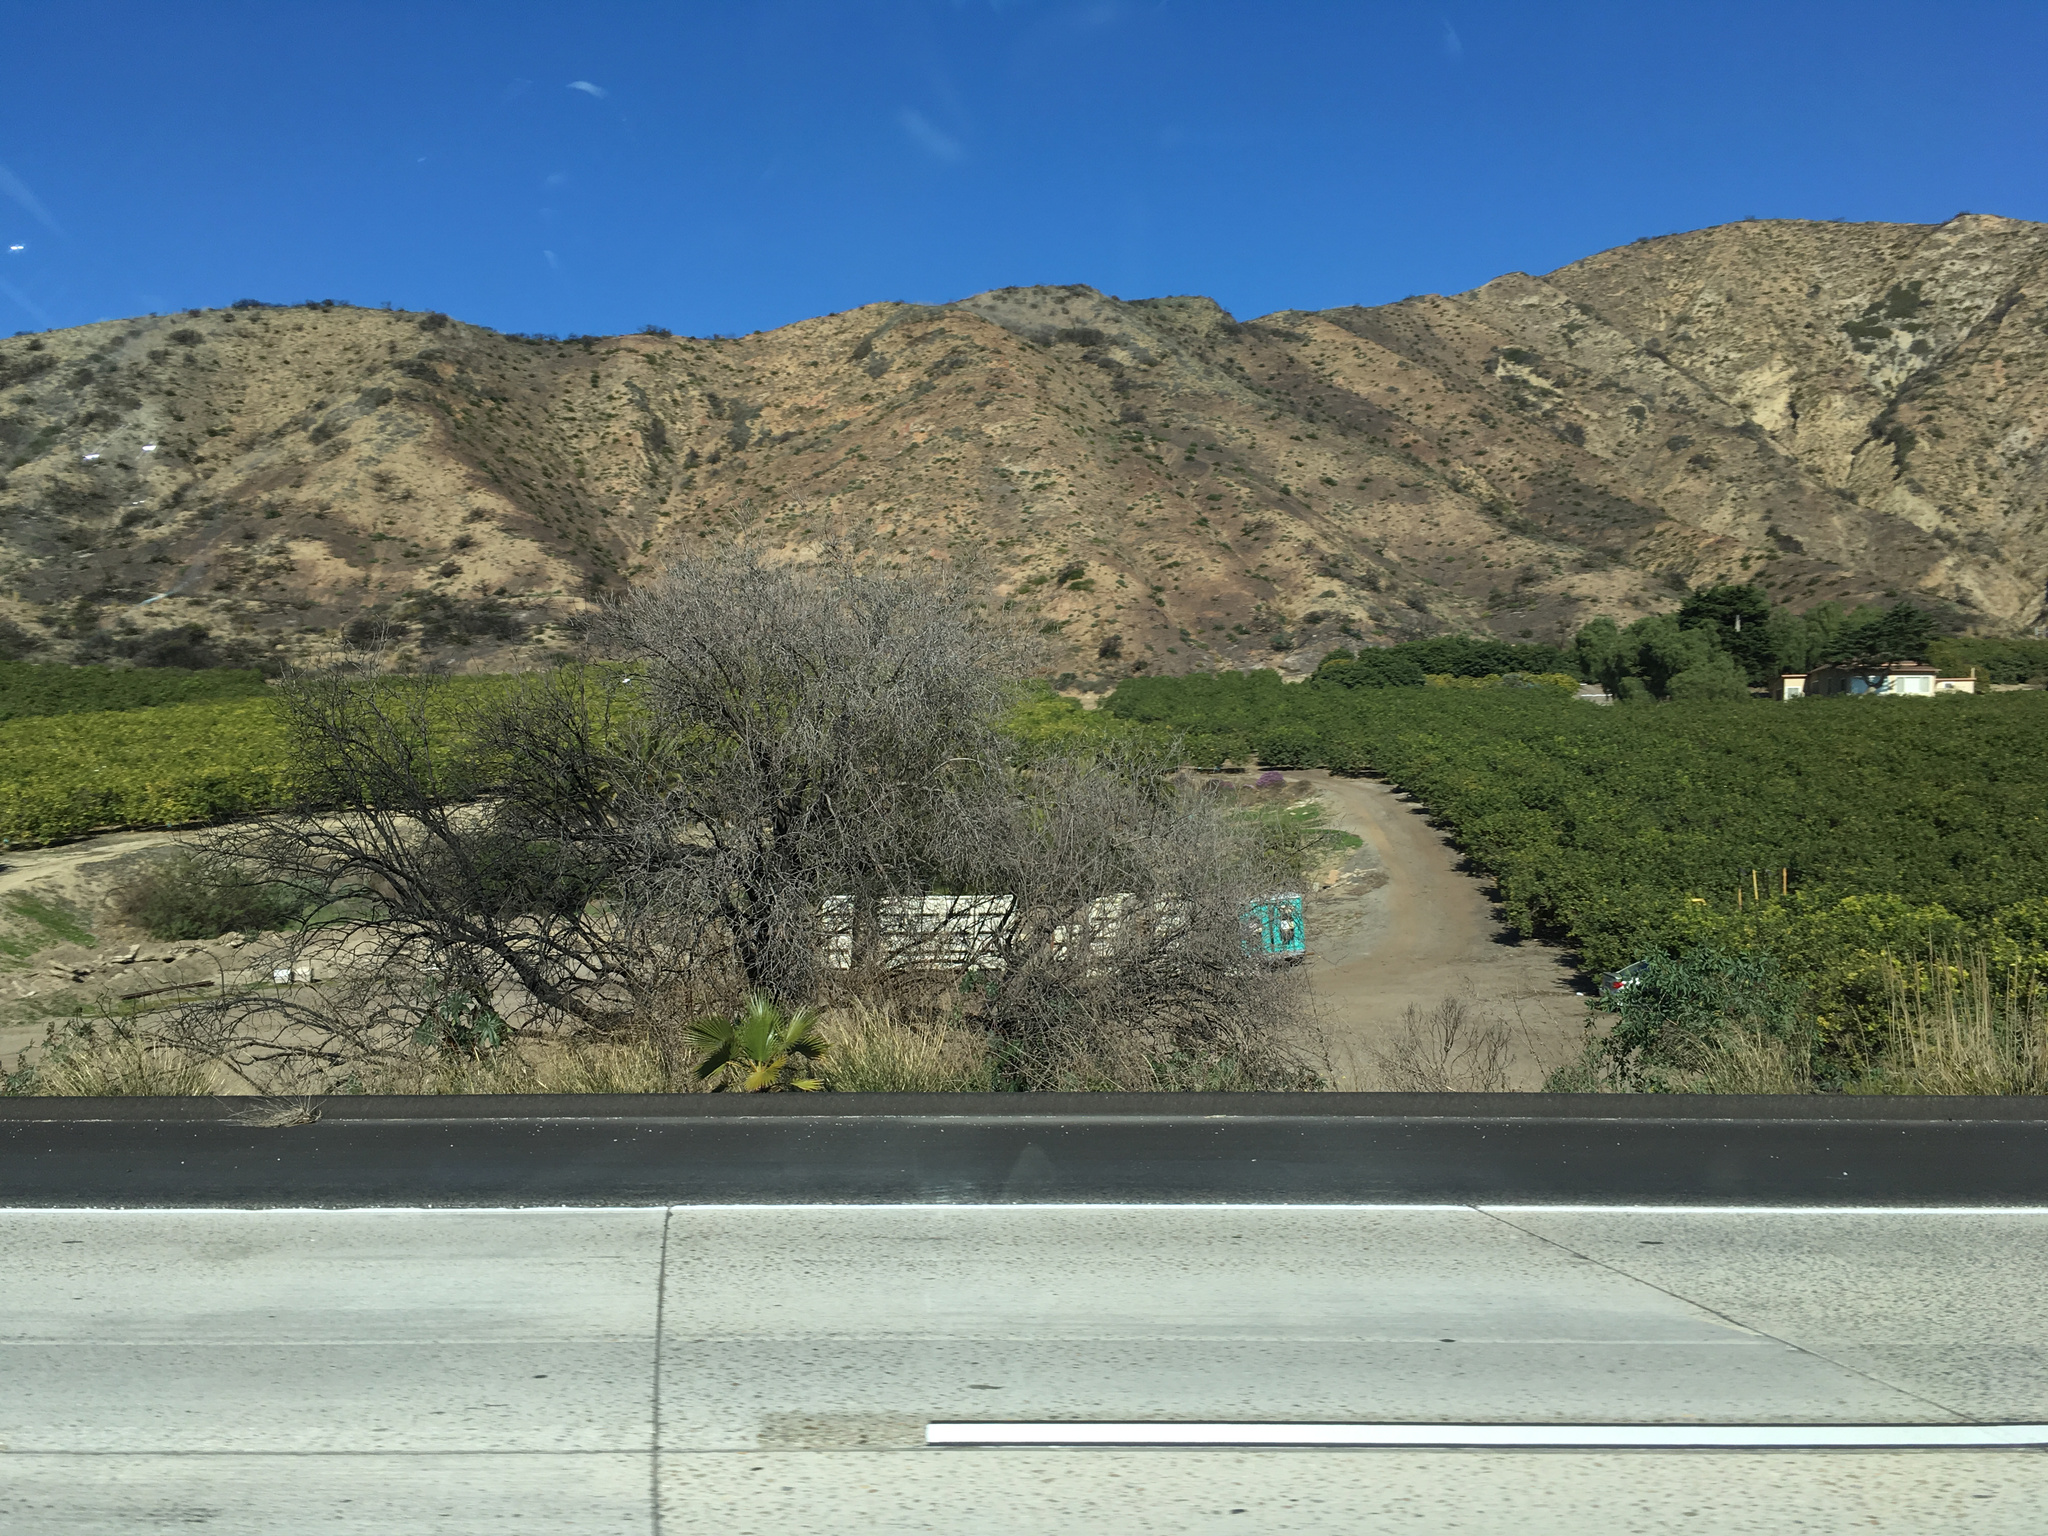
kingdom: Plantae
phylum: Tracheophyta
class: Magnoliopsida
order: Lamiales
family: Scrophulariaceae
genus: Myoporum
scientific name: Myoporum laetum
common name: Ngaio tree
